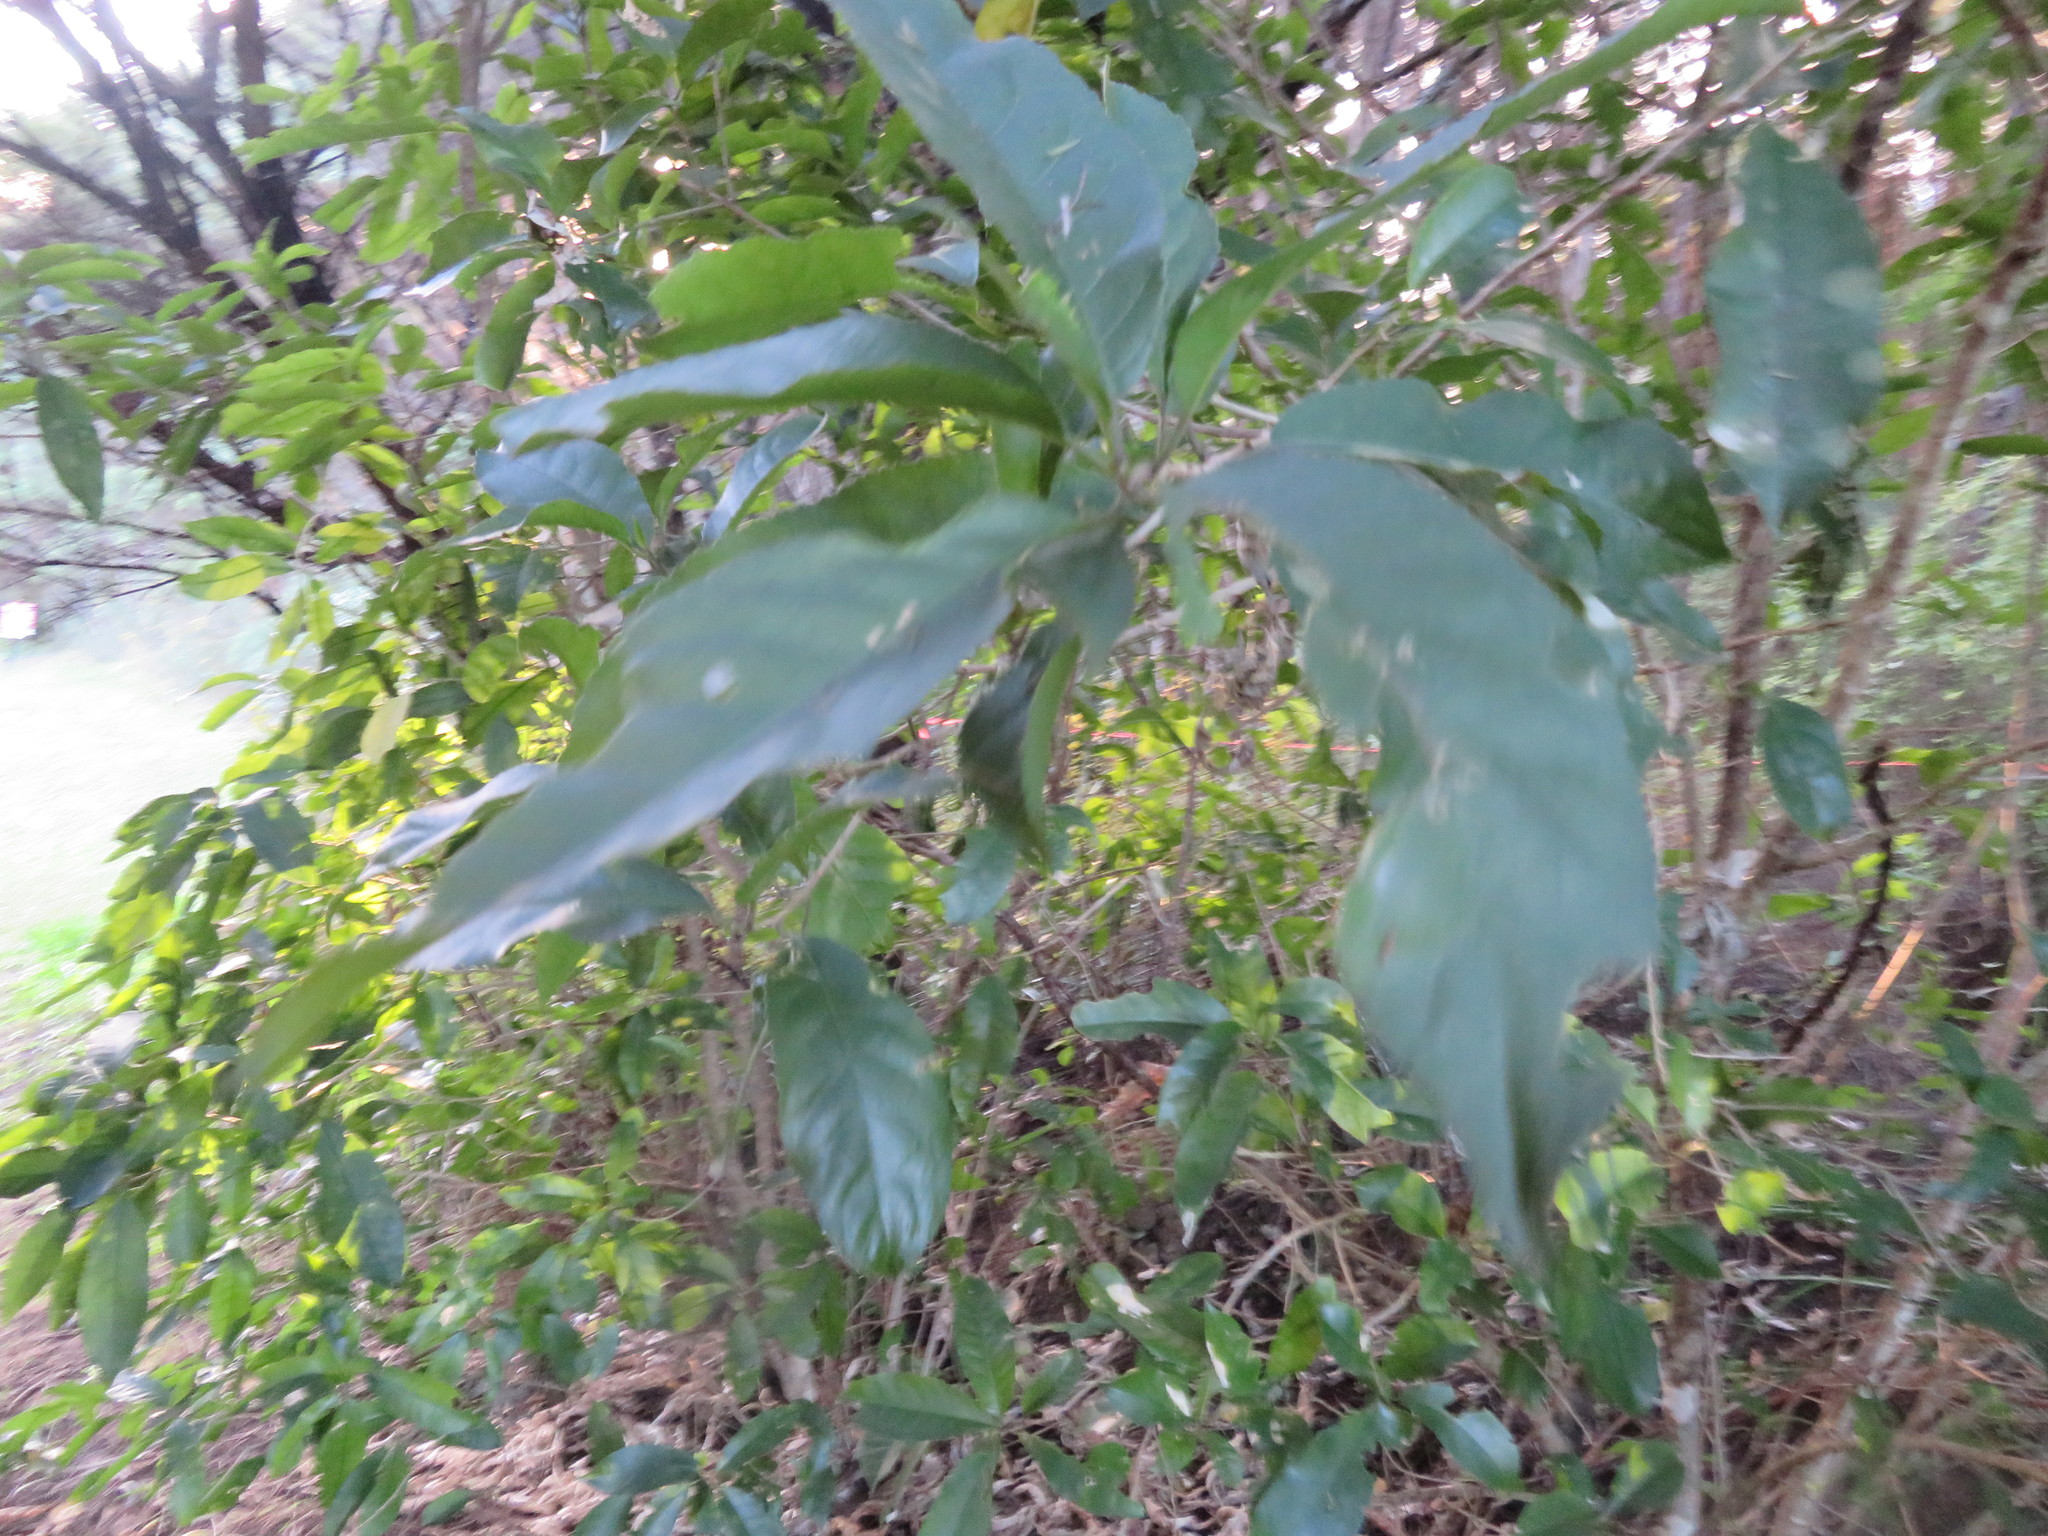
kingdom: Plantae
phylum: Tracheophyta
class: Magnoliopsida
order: Malpighiales
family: Violaceae
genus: Melicytus
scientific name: Melicytus ramiflorus
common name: Mahoe
